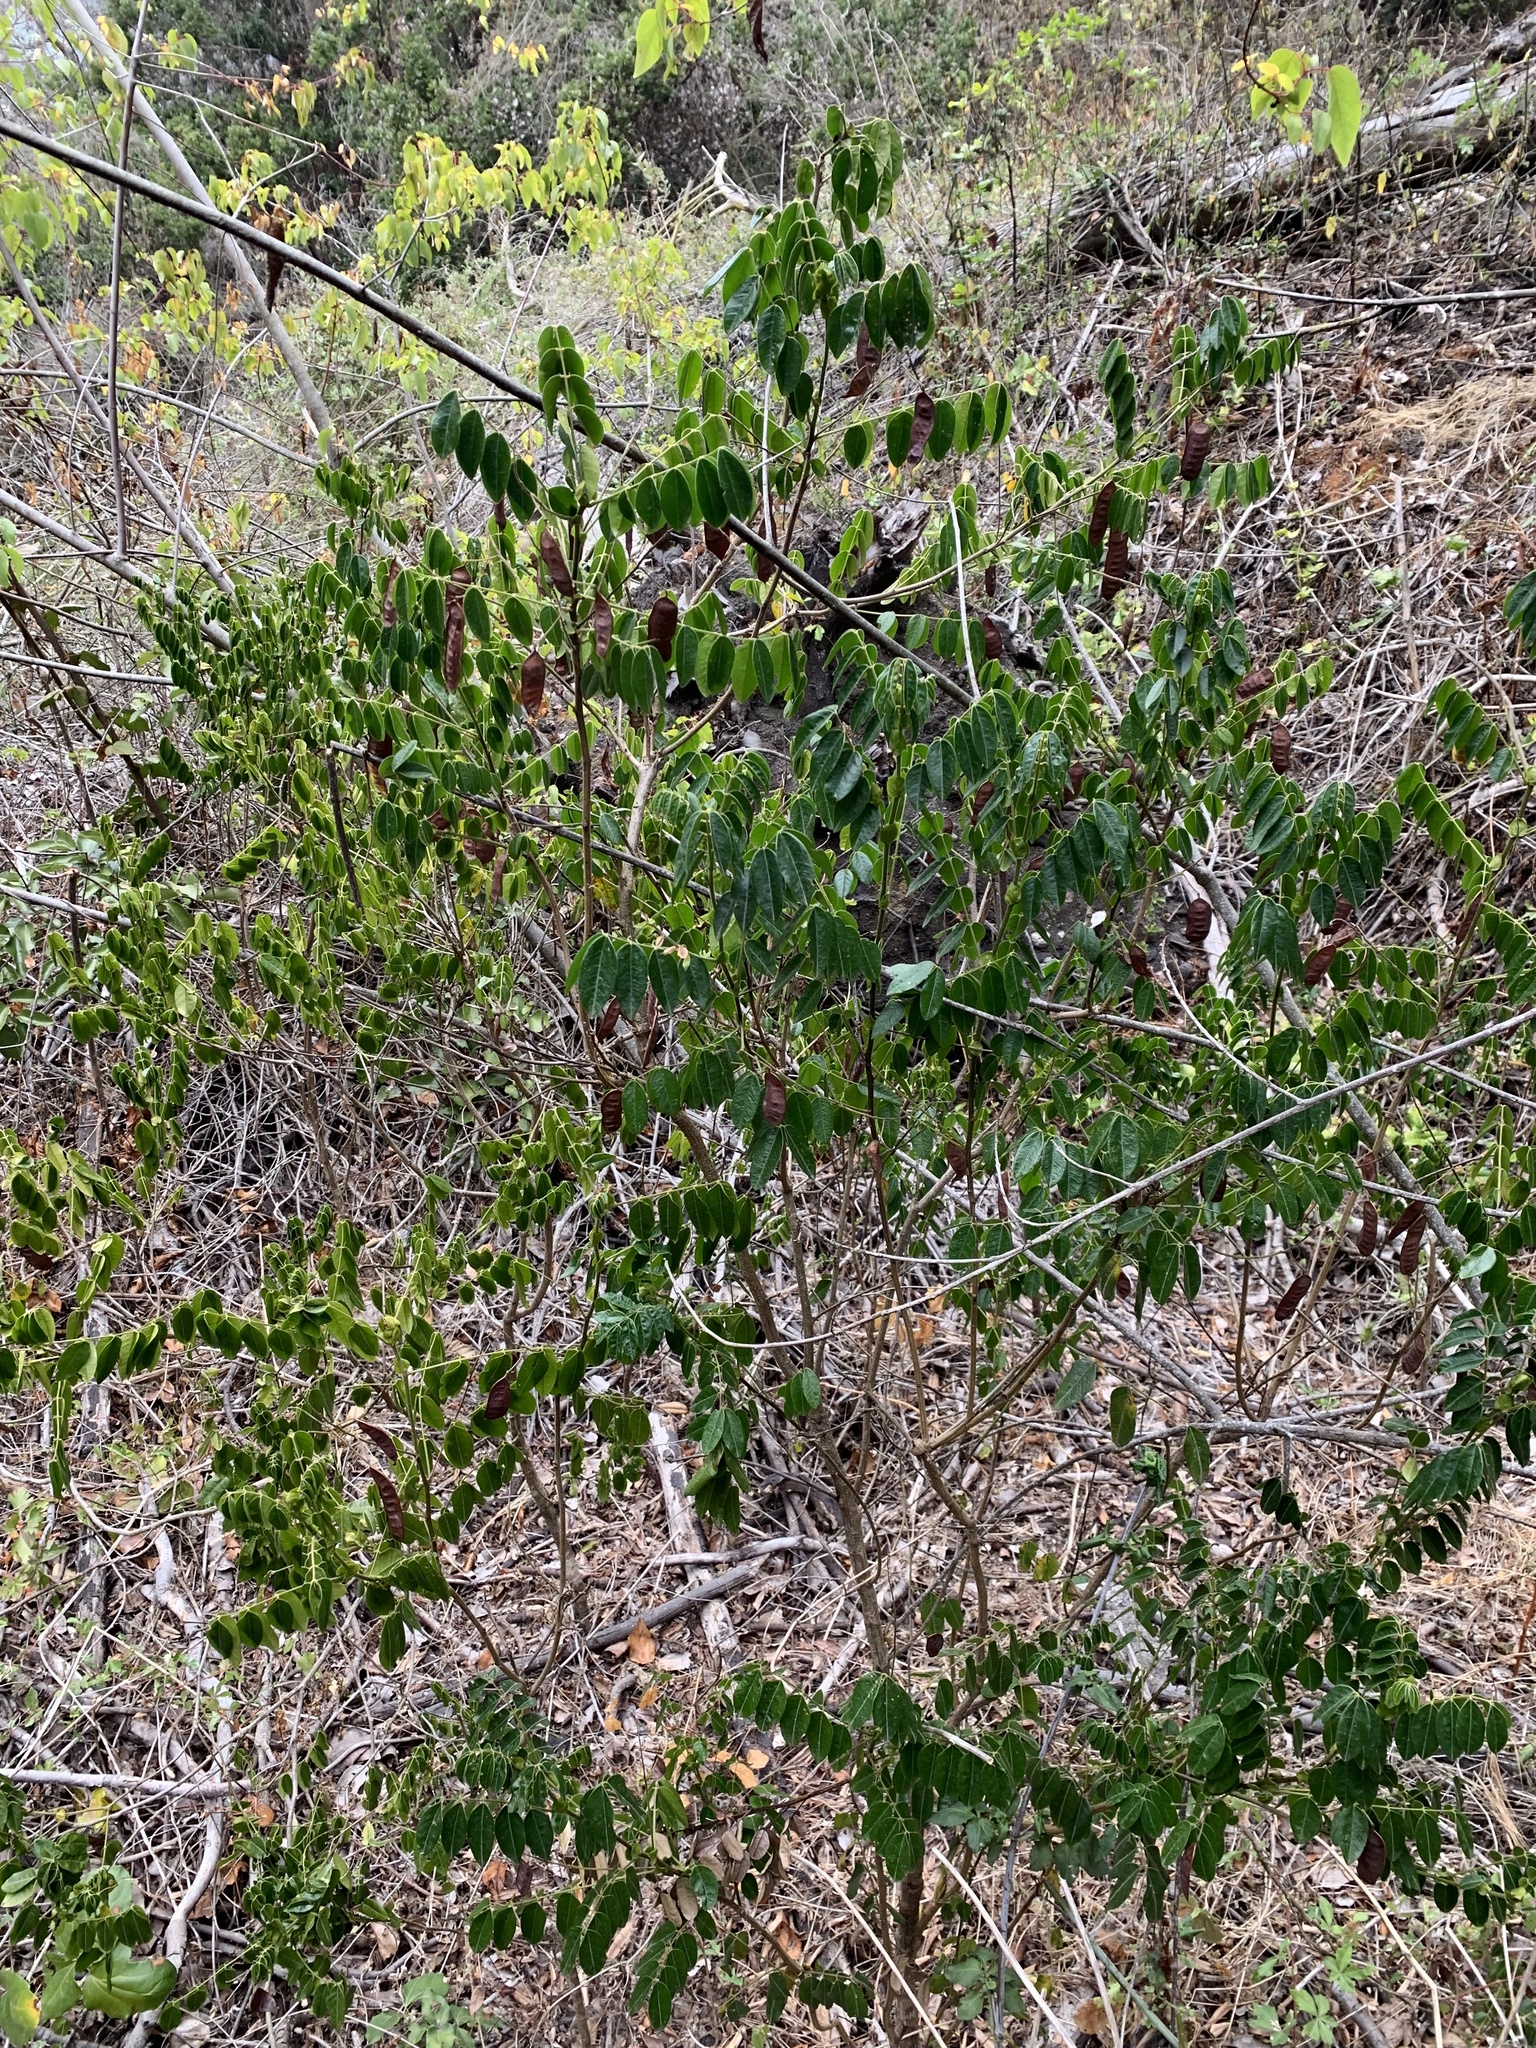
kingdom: Plantae
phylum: Tracheophyta
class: Magnoliopsida
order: Fabales
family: Fabaceae
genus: Senna
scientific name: Senna stipulacea
